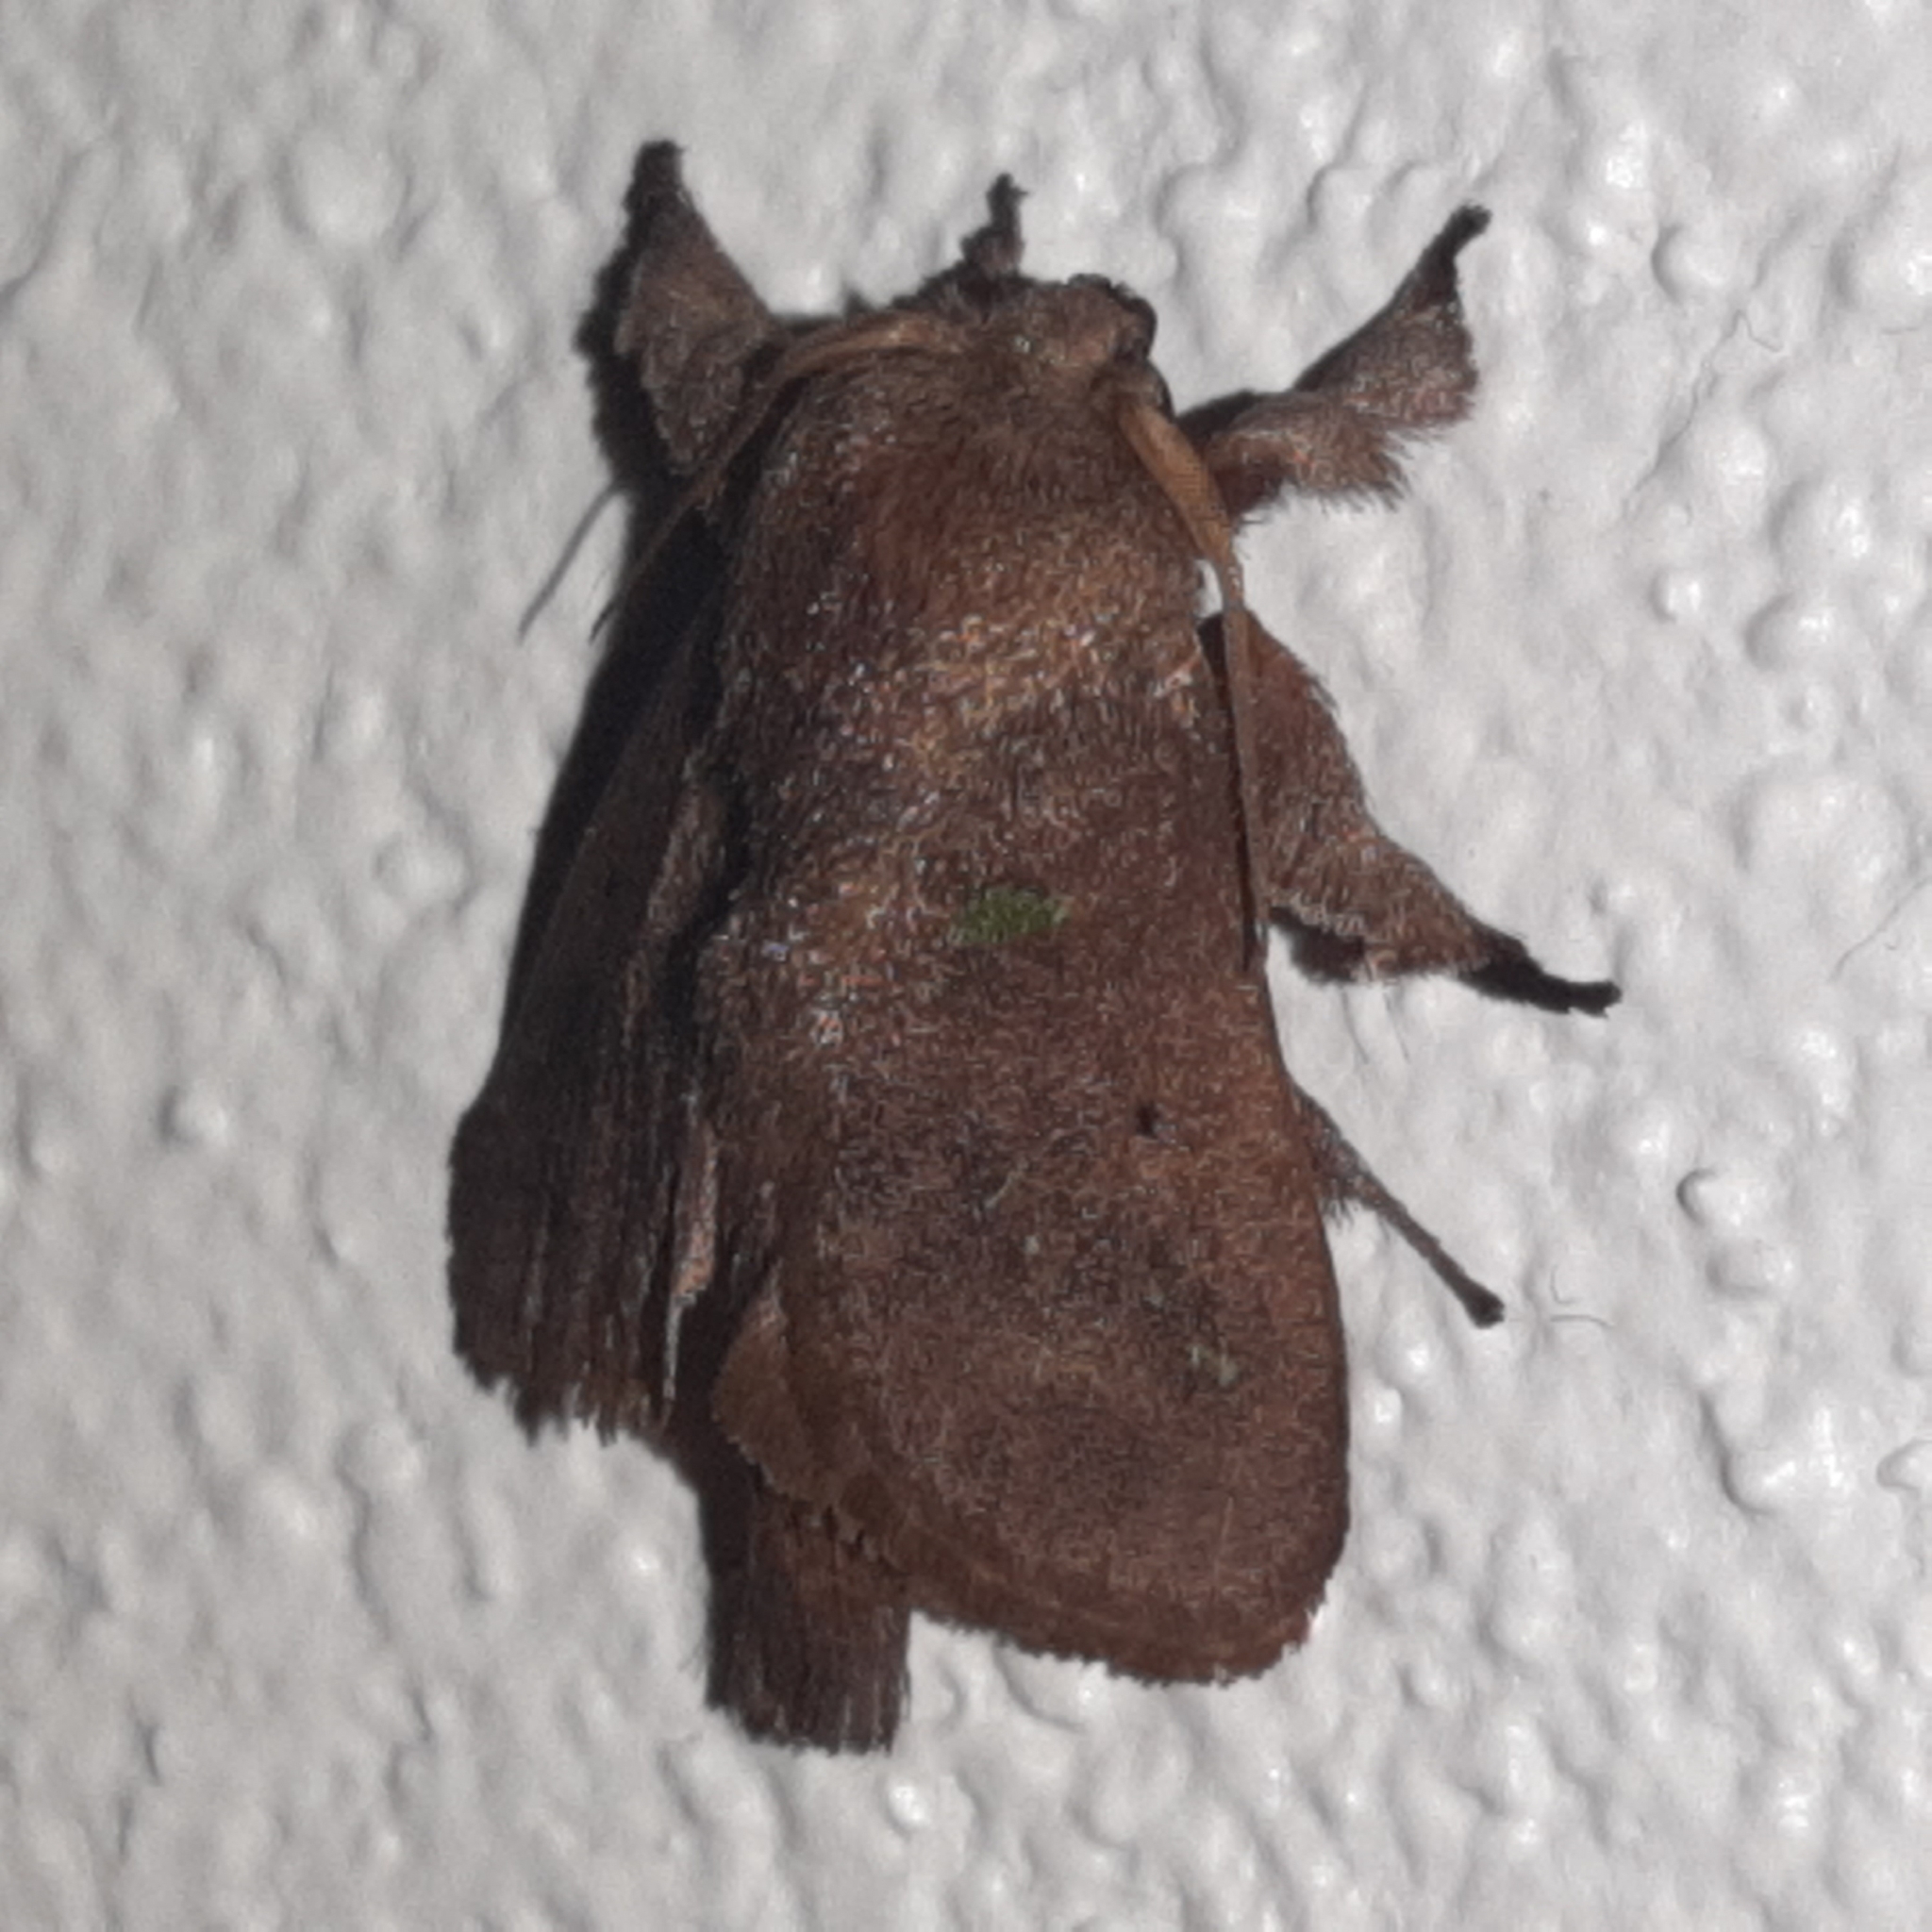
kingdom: Animalia
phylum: Arthropoda
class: Insecta
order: Lepidoptera
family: Limacodidae
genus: Euclea
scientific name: Euclea norba
